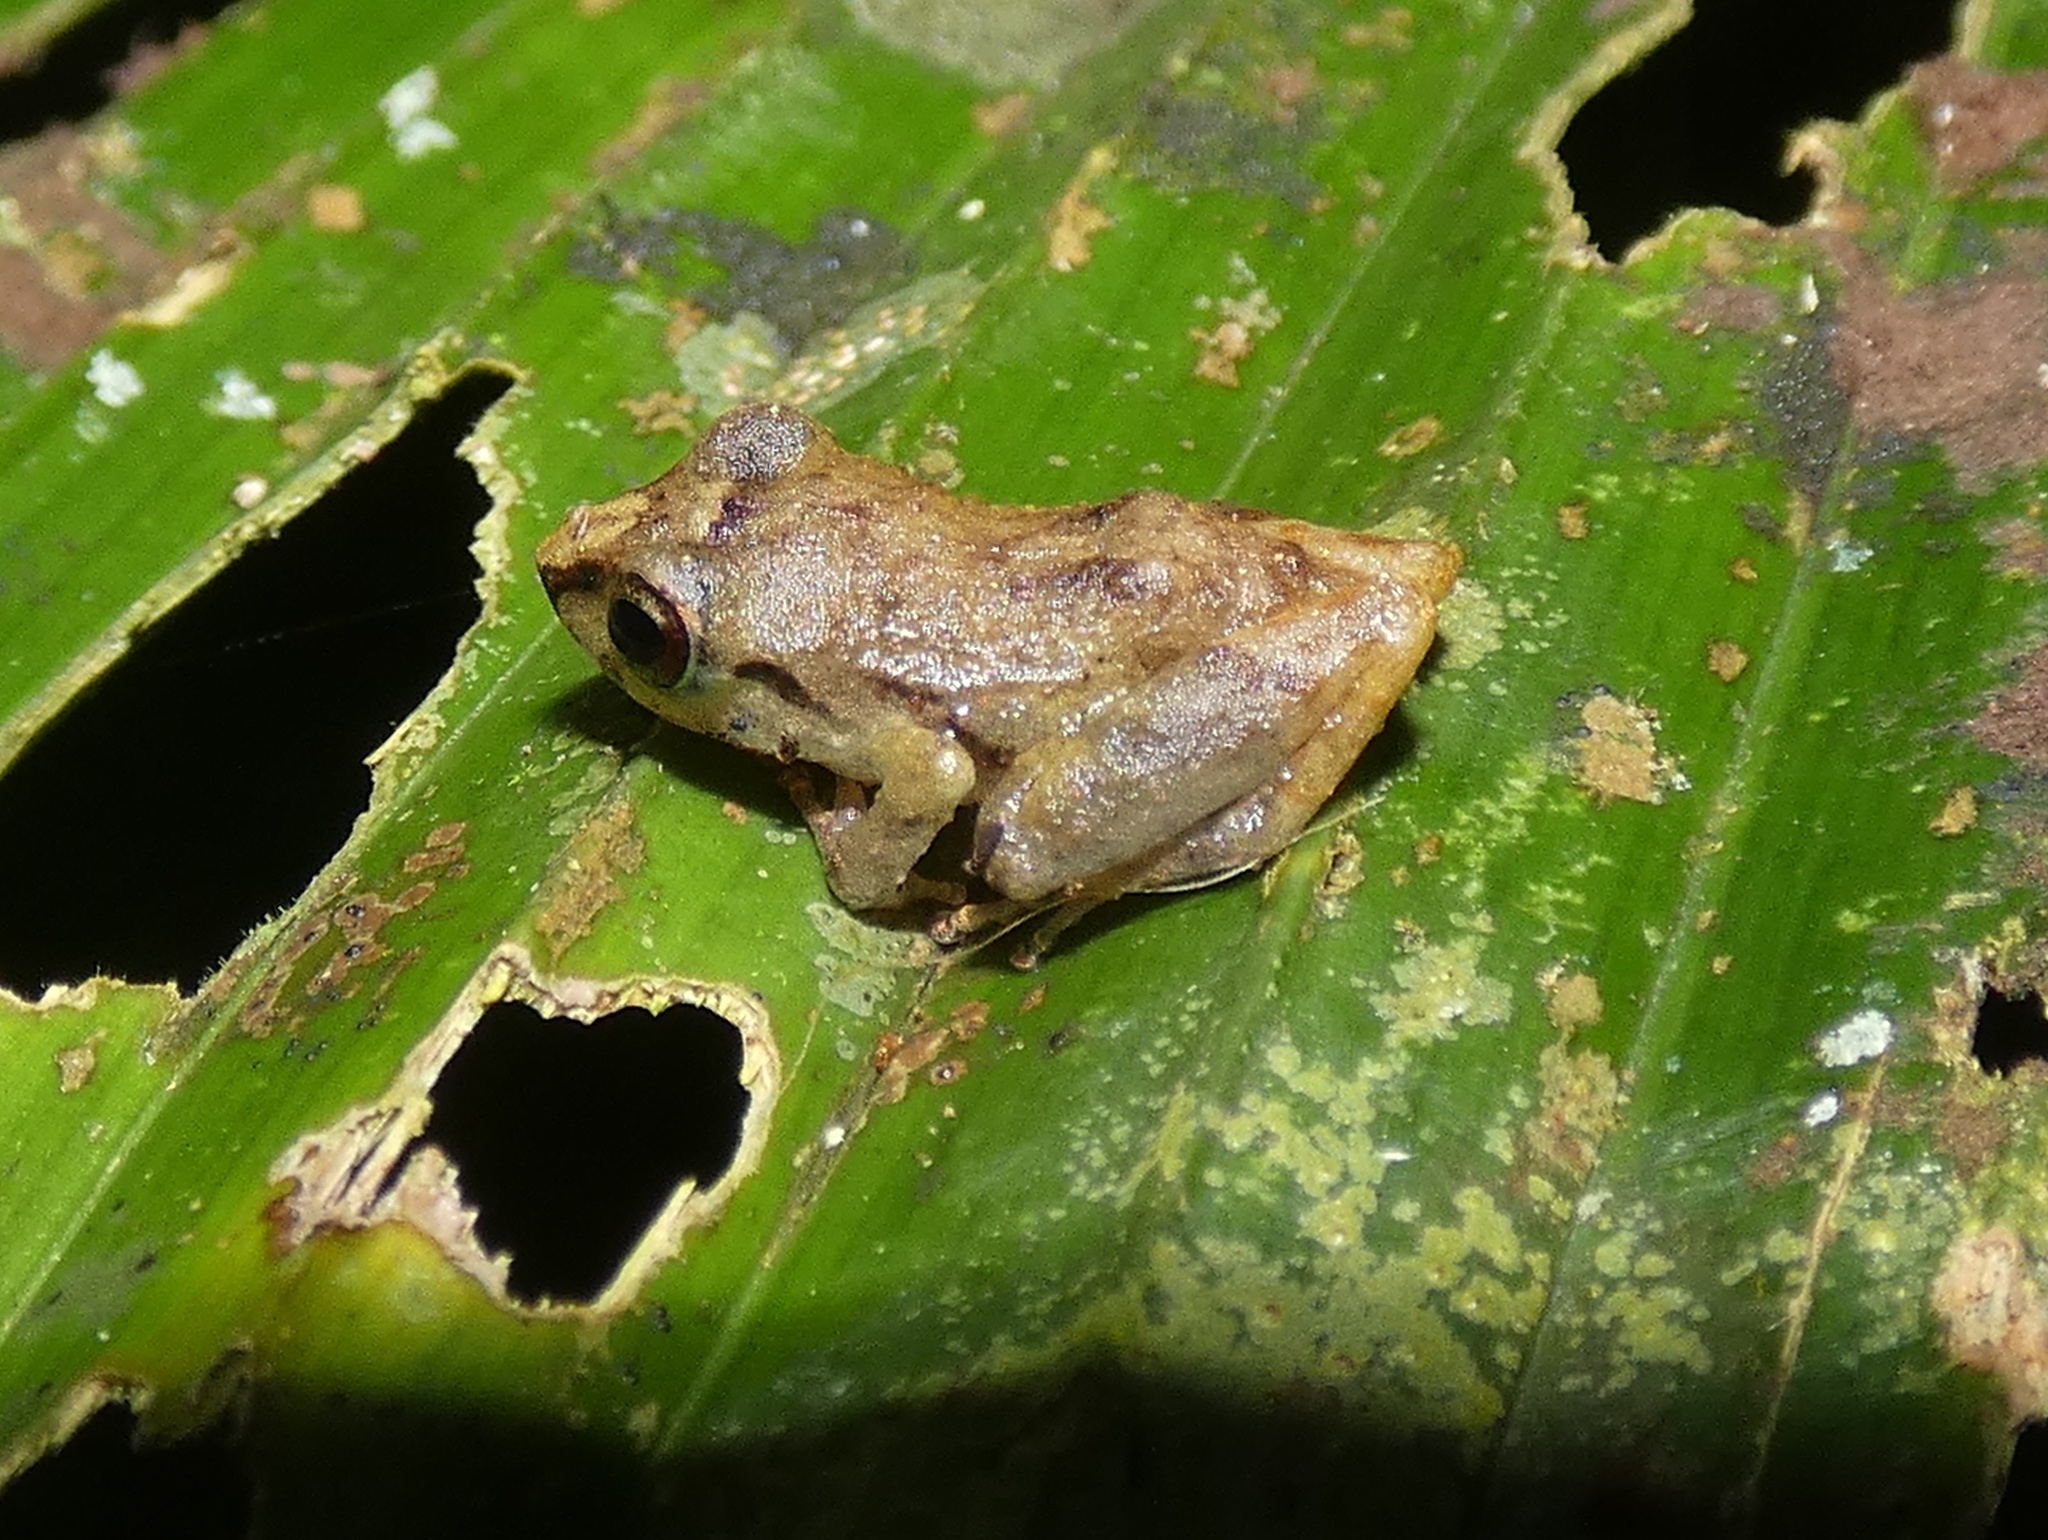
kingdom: Animalia
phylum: Chordata
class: Amphibia
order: Anura
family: Craugastoridae
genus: Pristimantis
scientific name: Pristimantis ridens
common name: Rio san juan robber frog
